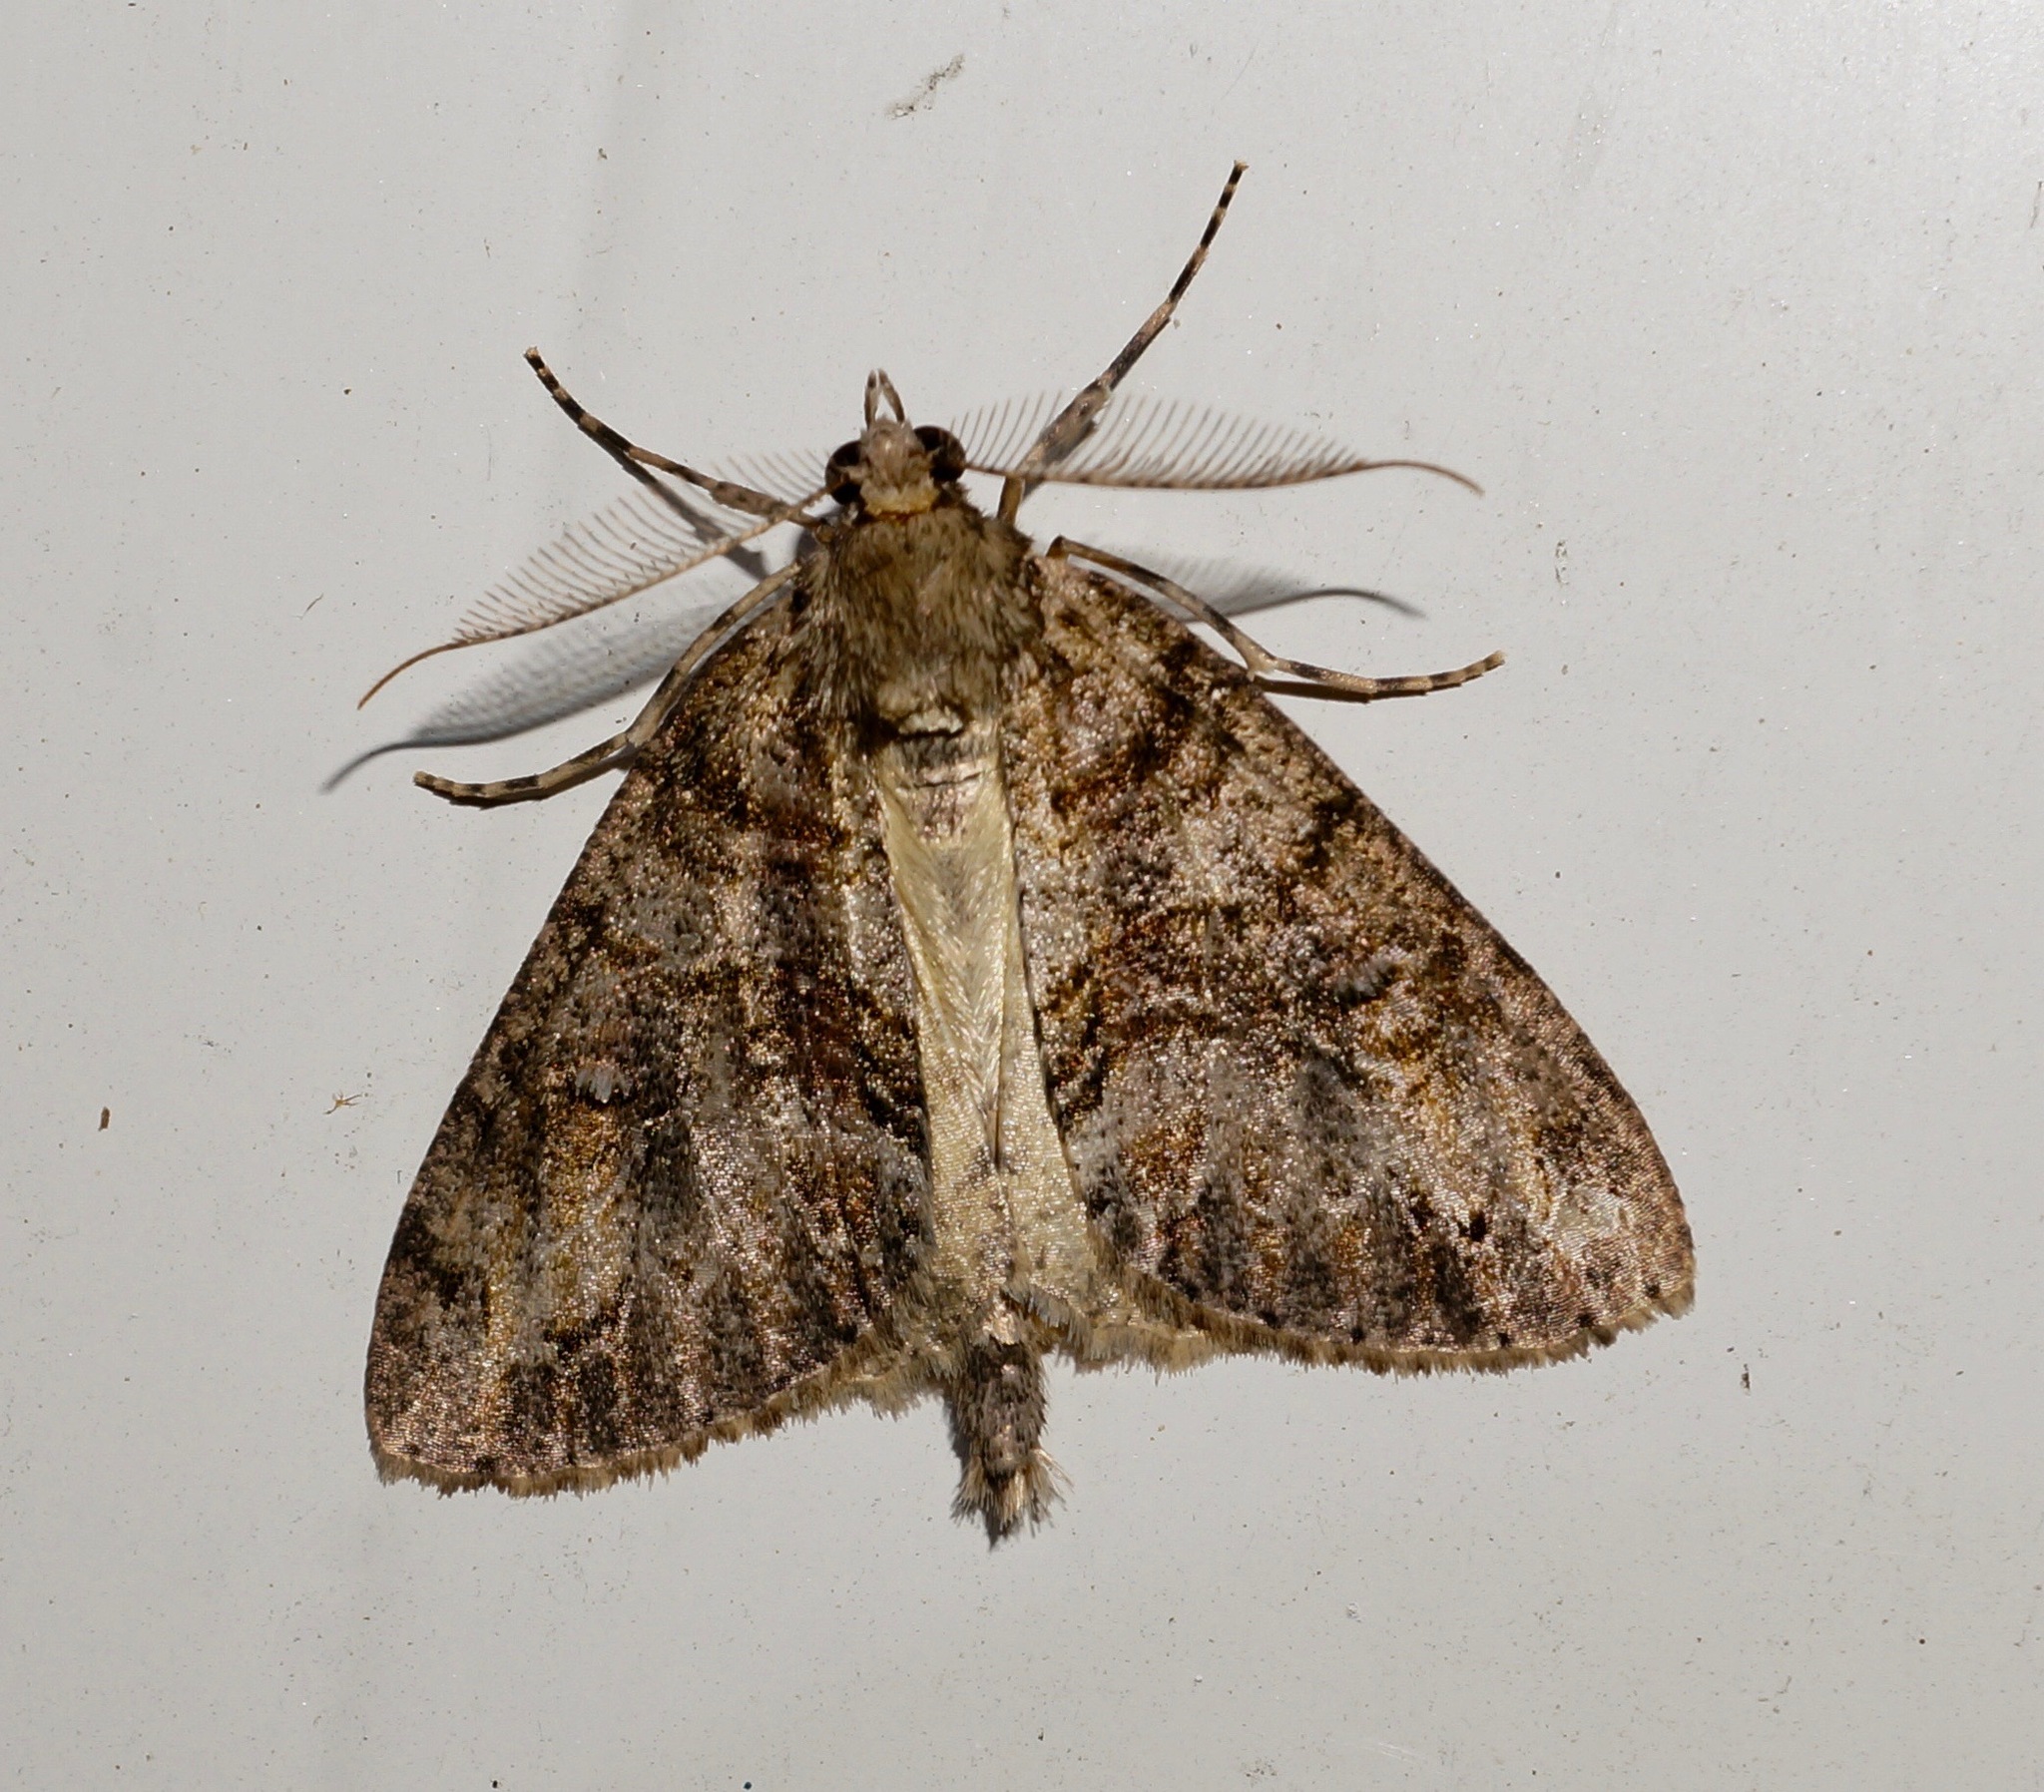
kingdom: Animalia
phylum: Arthropoda
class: Insecta
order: Lepidoptera
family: Geometridae
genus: Pseudocoremia
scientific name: Pseudocoremia suavis
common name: Common forest looper
